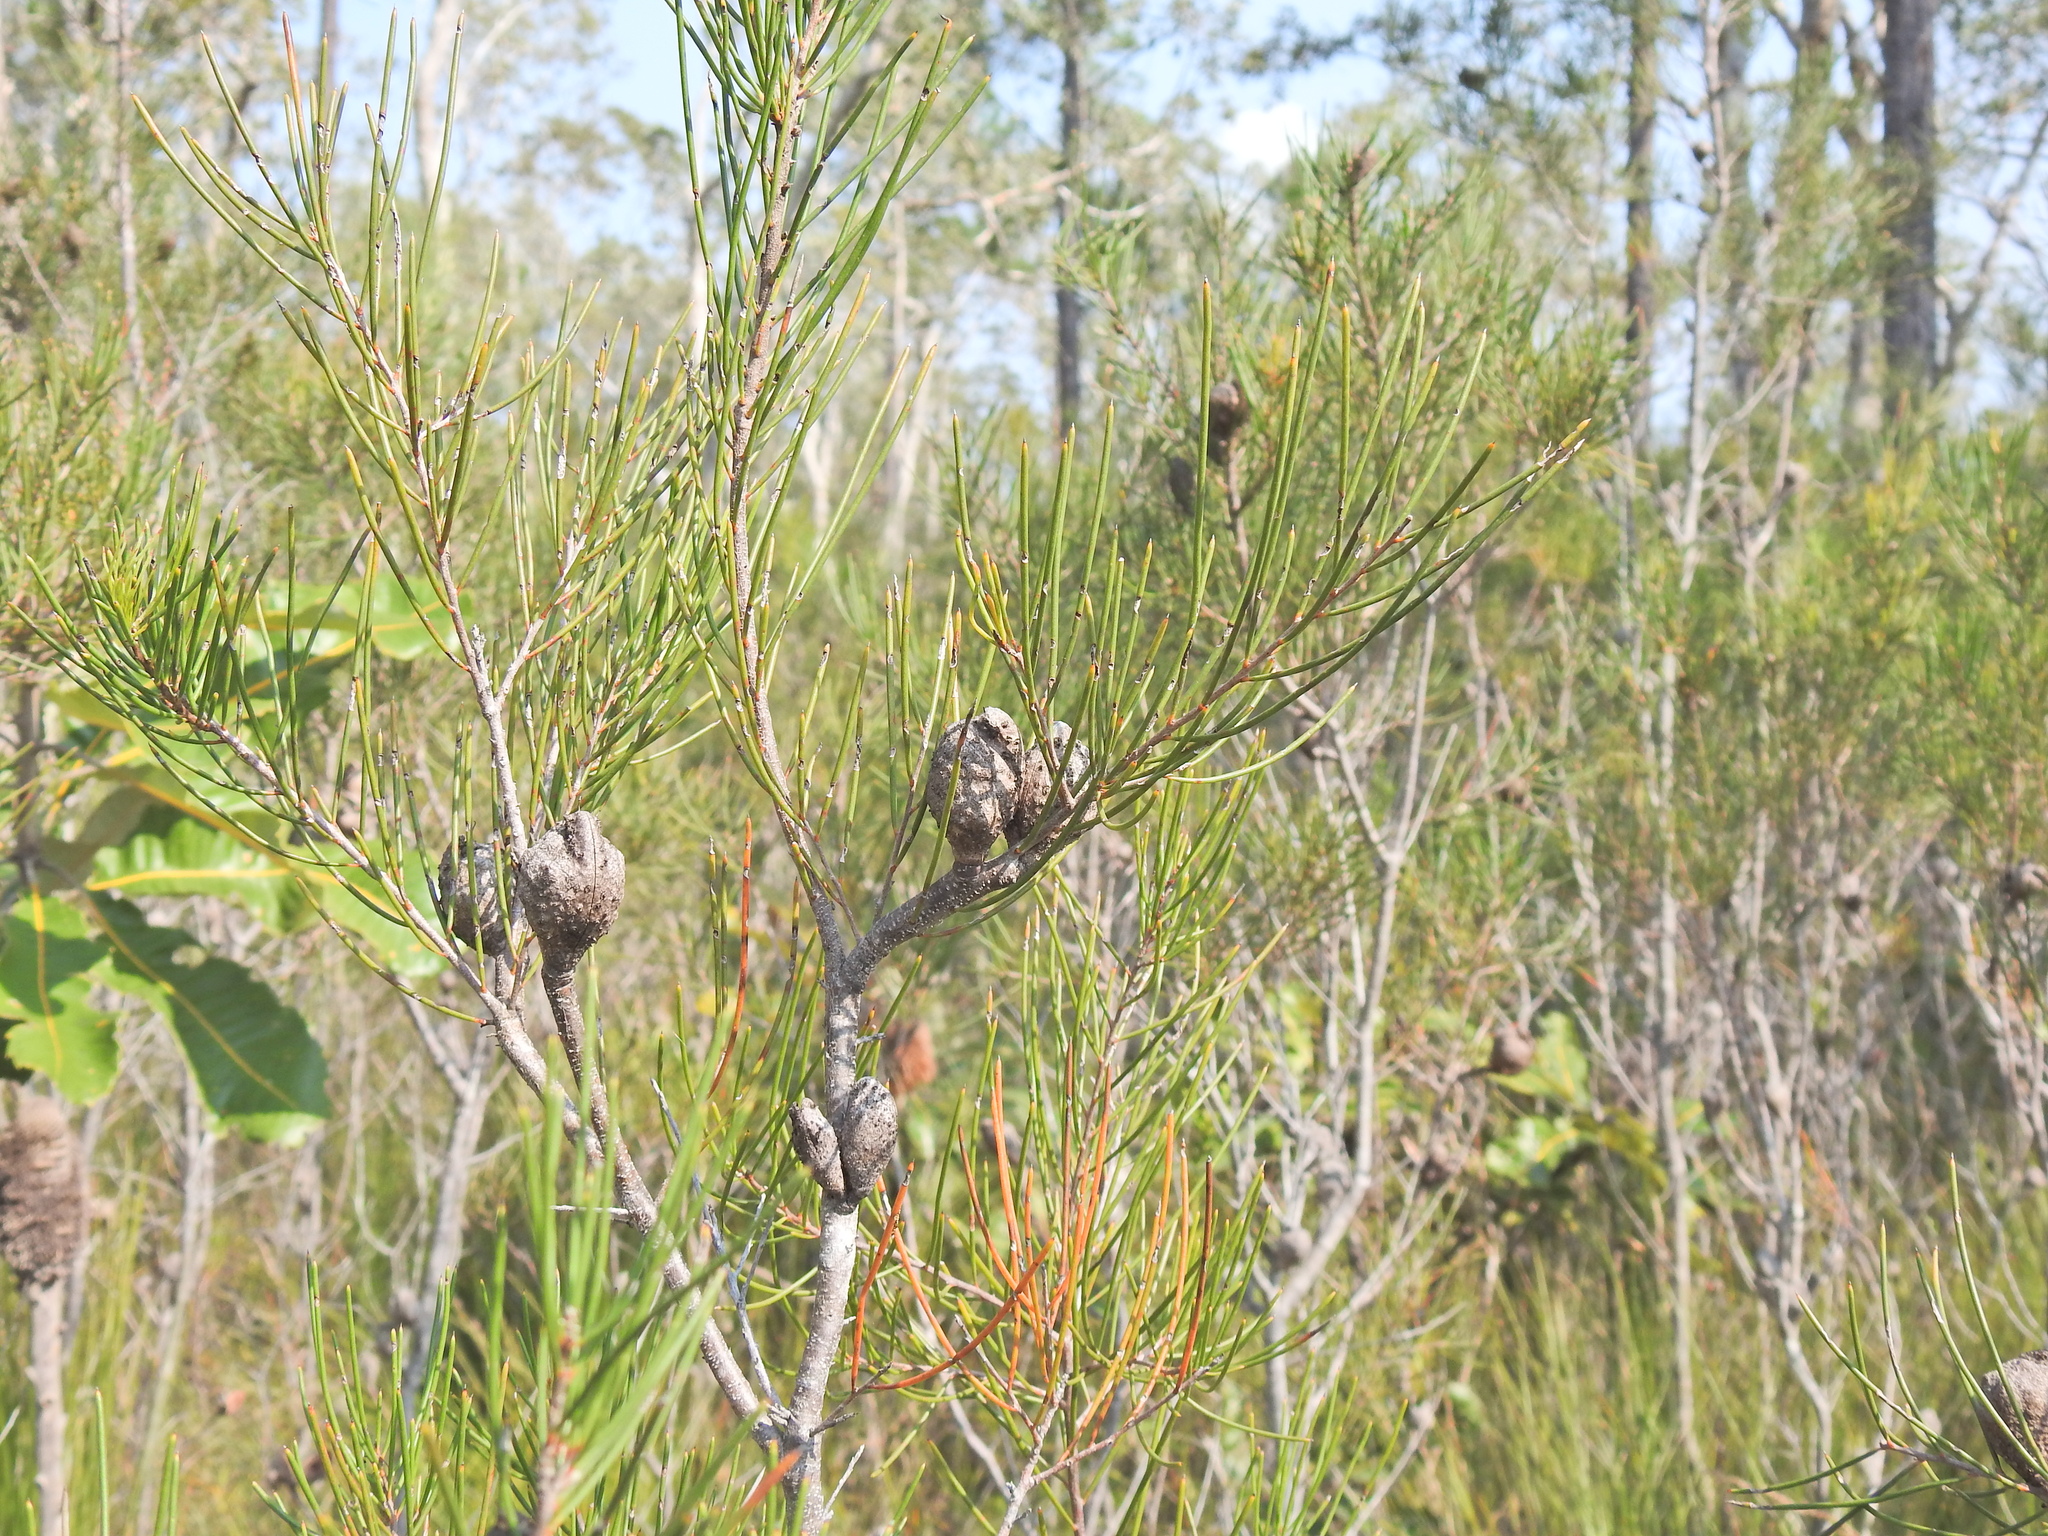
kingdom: Plantae
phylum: Tracheophyta
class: Magnoliopsida
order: Proteales
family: Proteaceae
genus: Hakea
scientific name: Hakea actites
